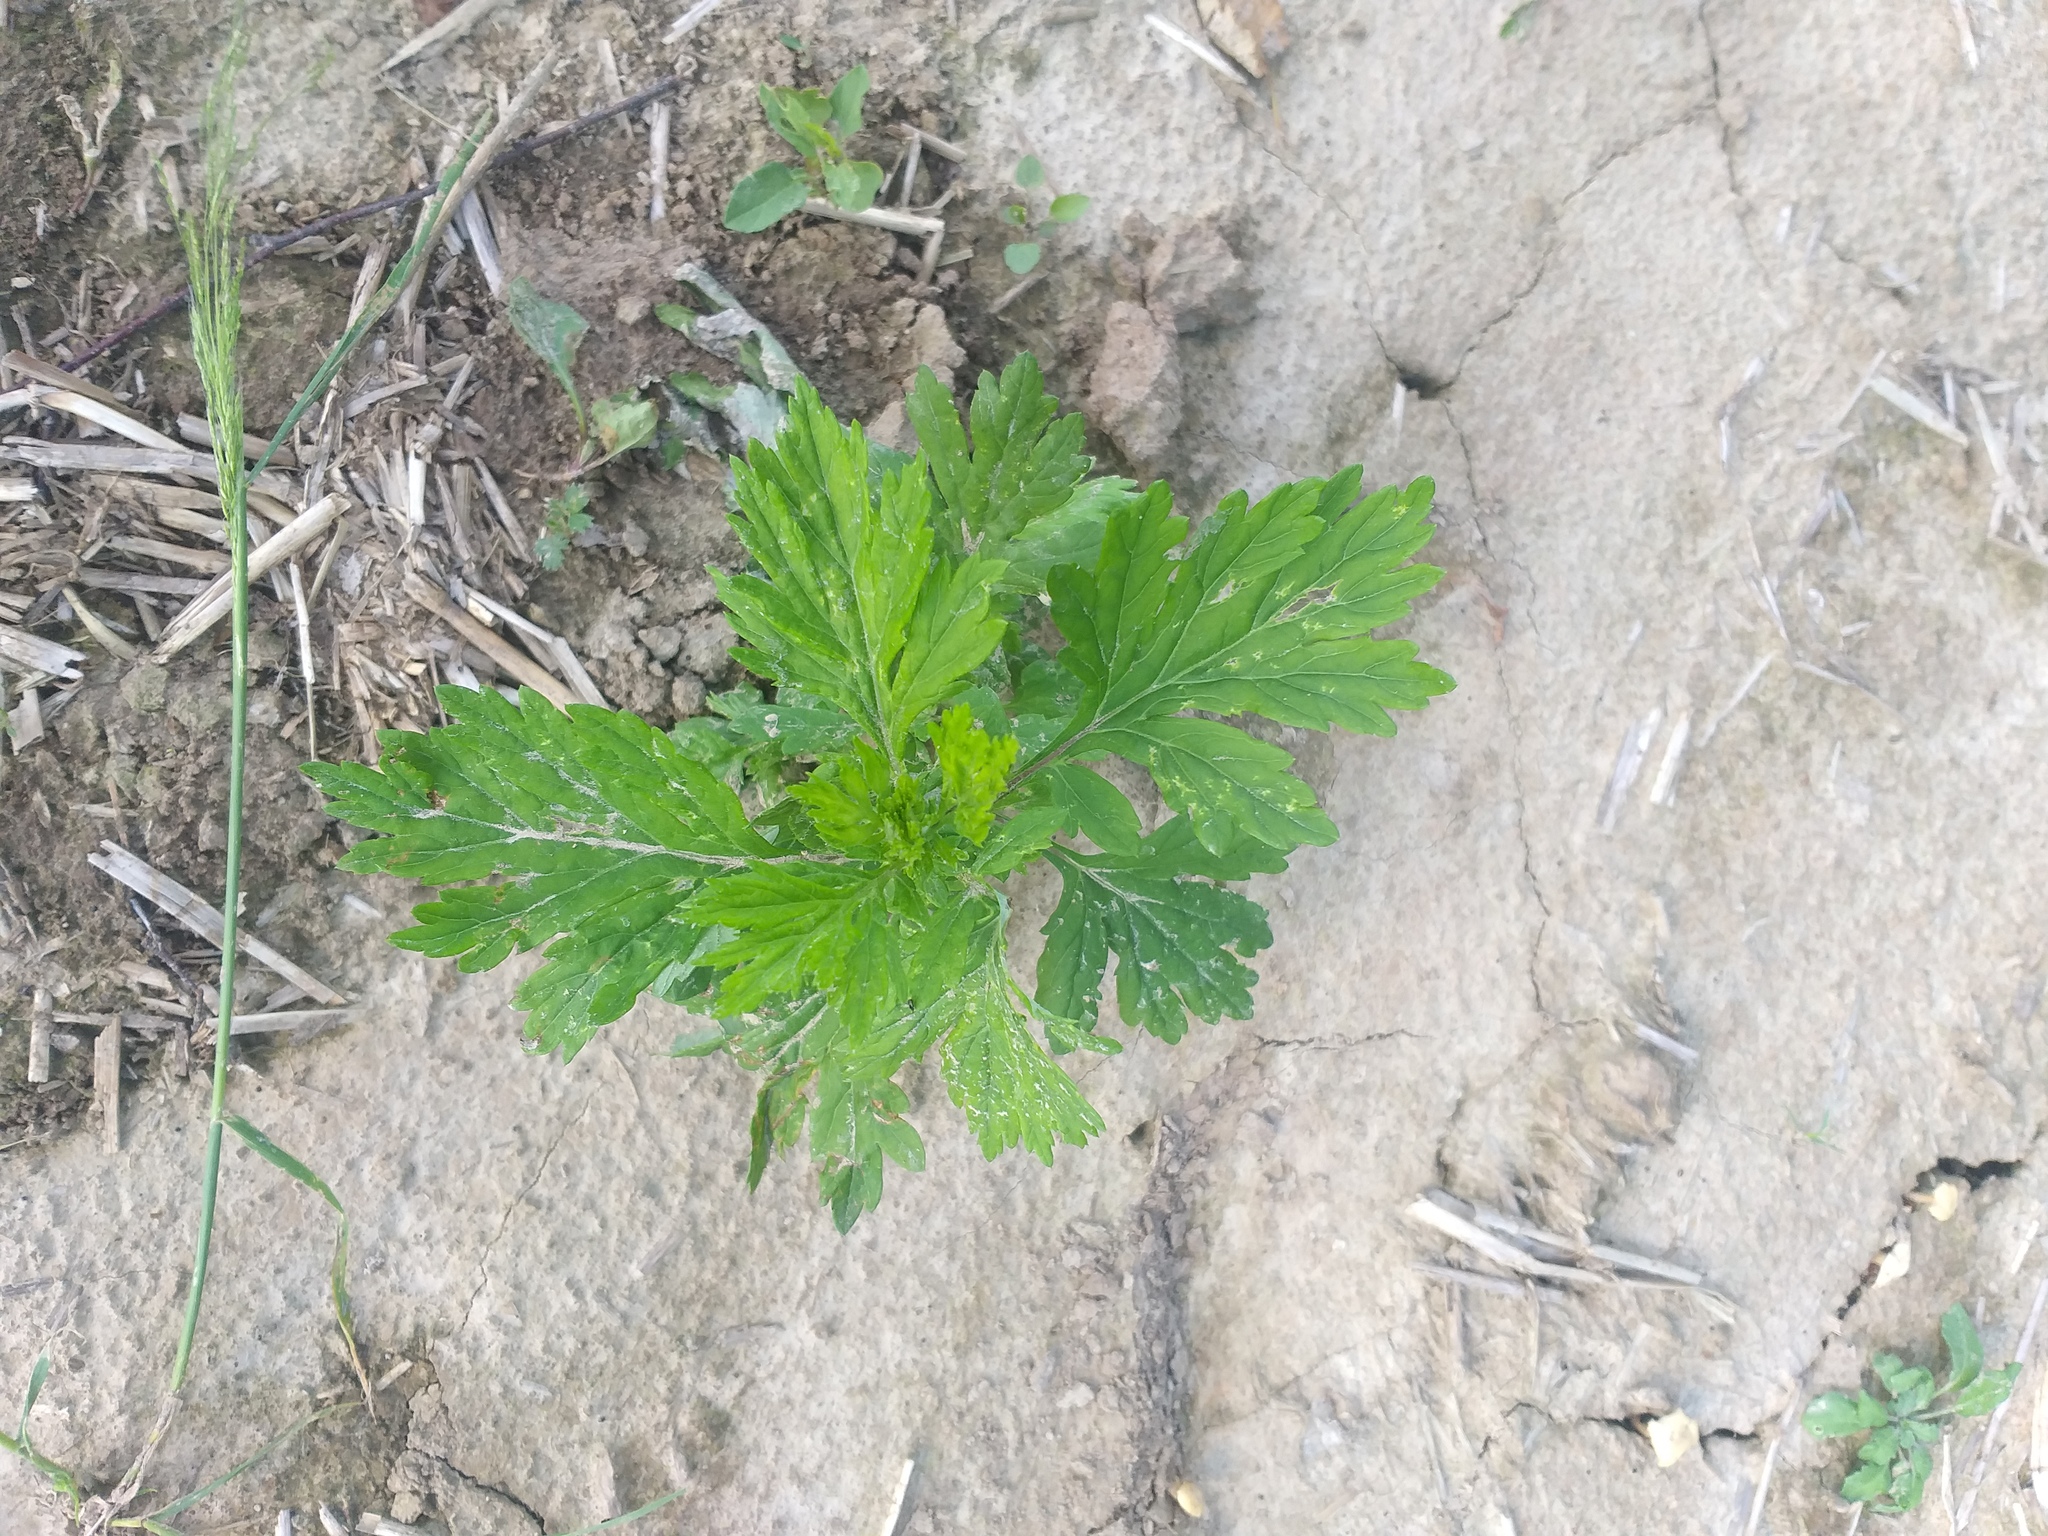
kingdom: Plantae
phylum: Tracheophyta
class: Magnoliopsida
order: Asterales
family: Asteraceae
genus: Artemisia
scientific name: Artemisia vulgaris
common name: Mugwort
